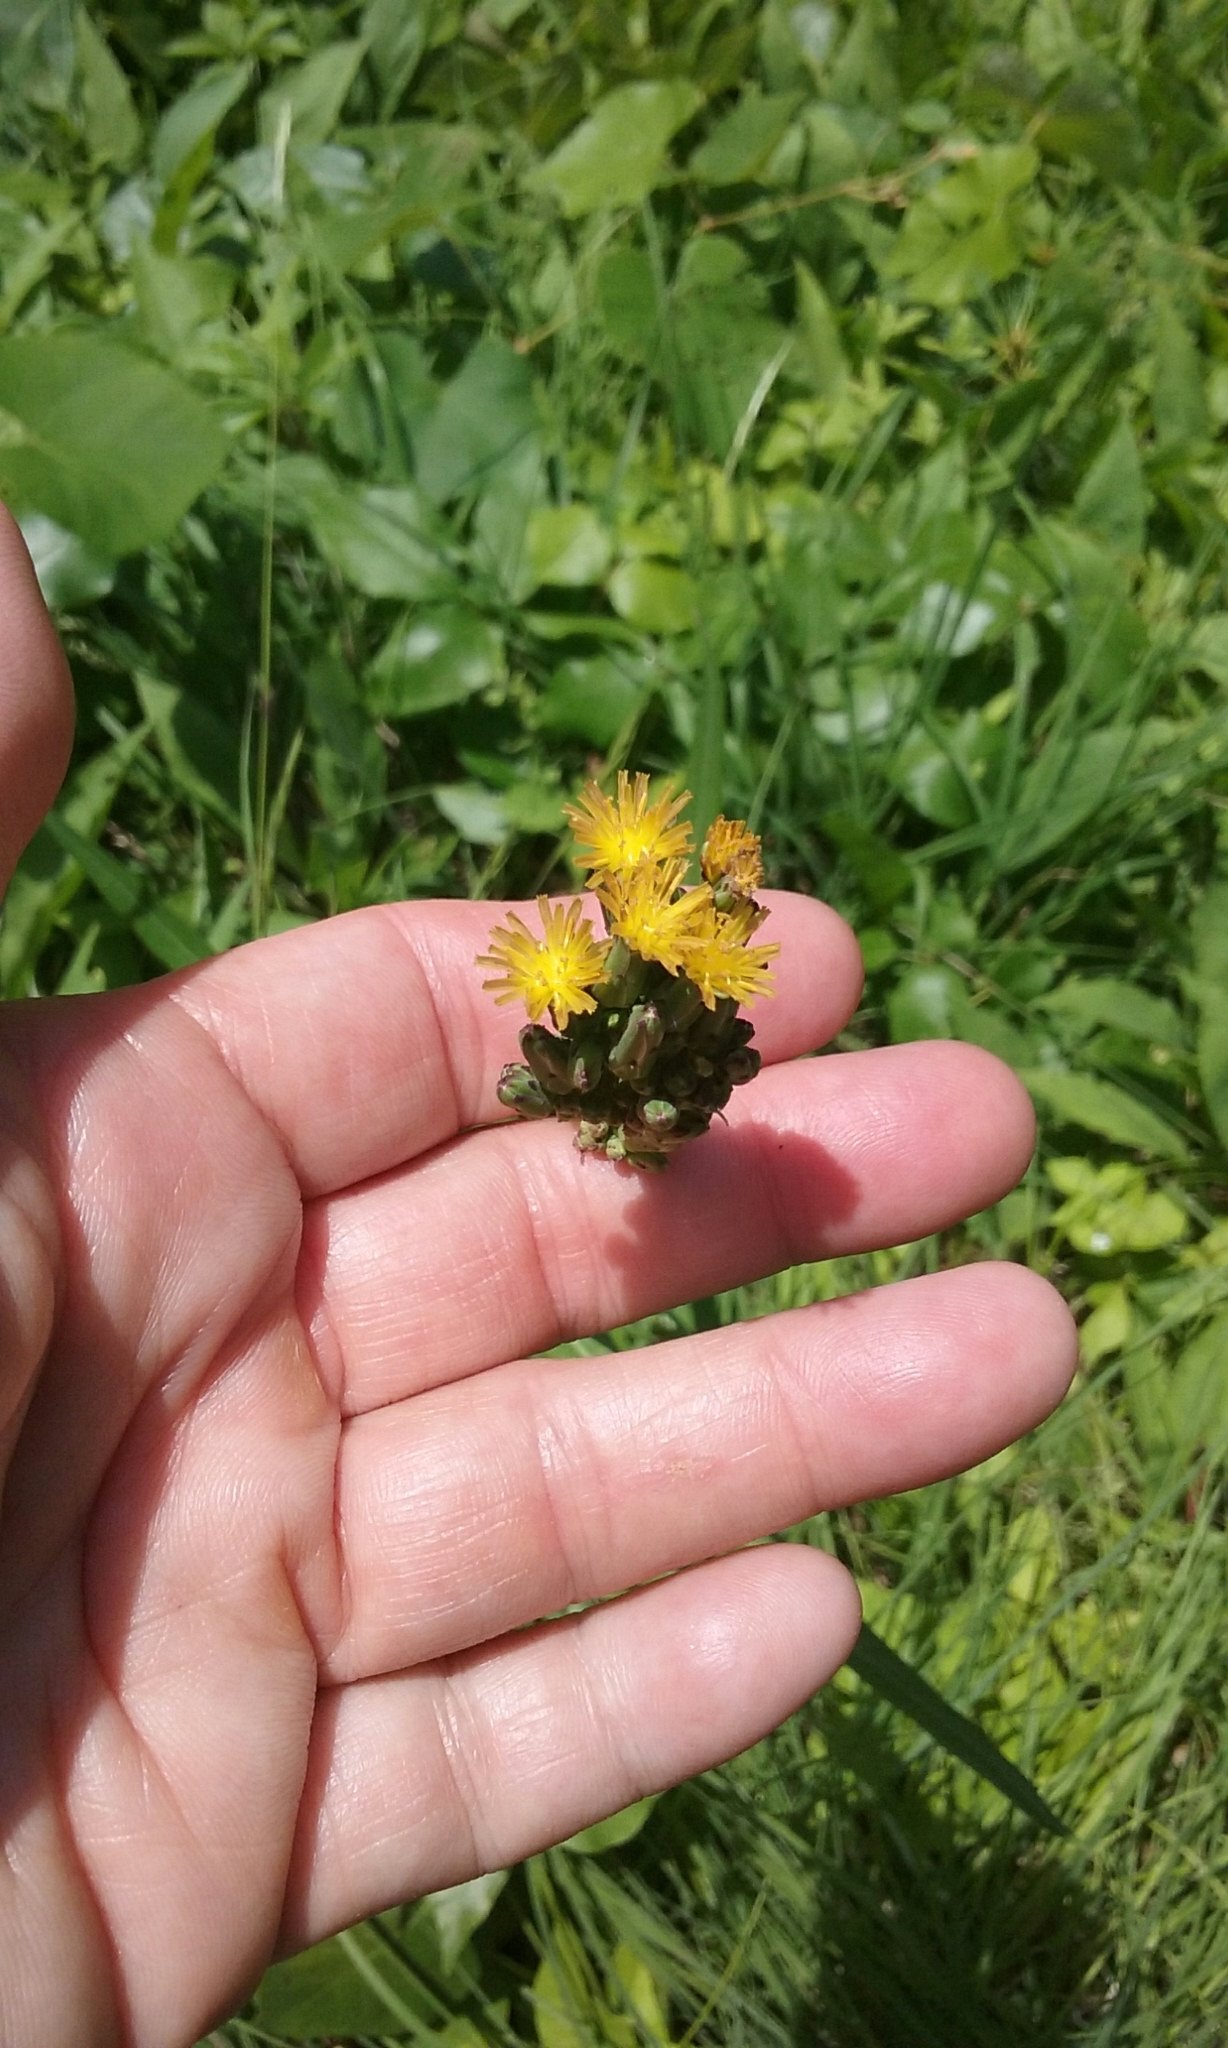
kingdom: Plantae
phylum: Tracheophyta
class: Magnoliopsida
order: Asterales
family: Asteraceae
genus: Lactuca
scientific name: Lactuca canadensis
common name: Canada lettuce
